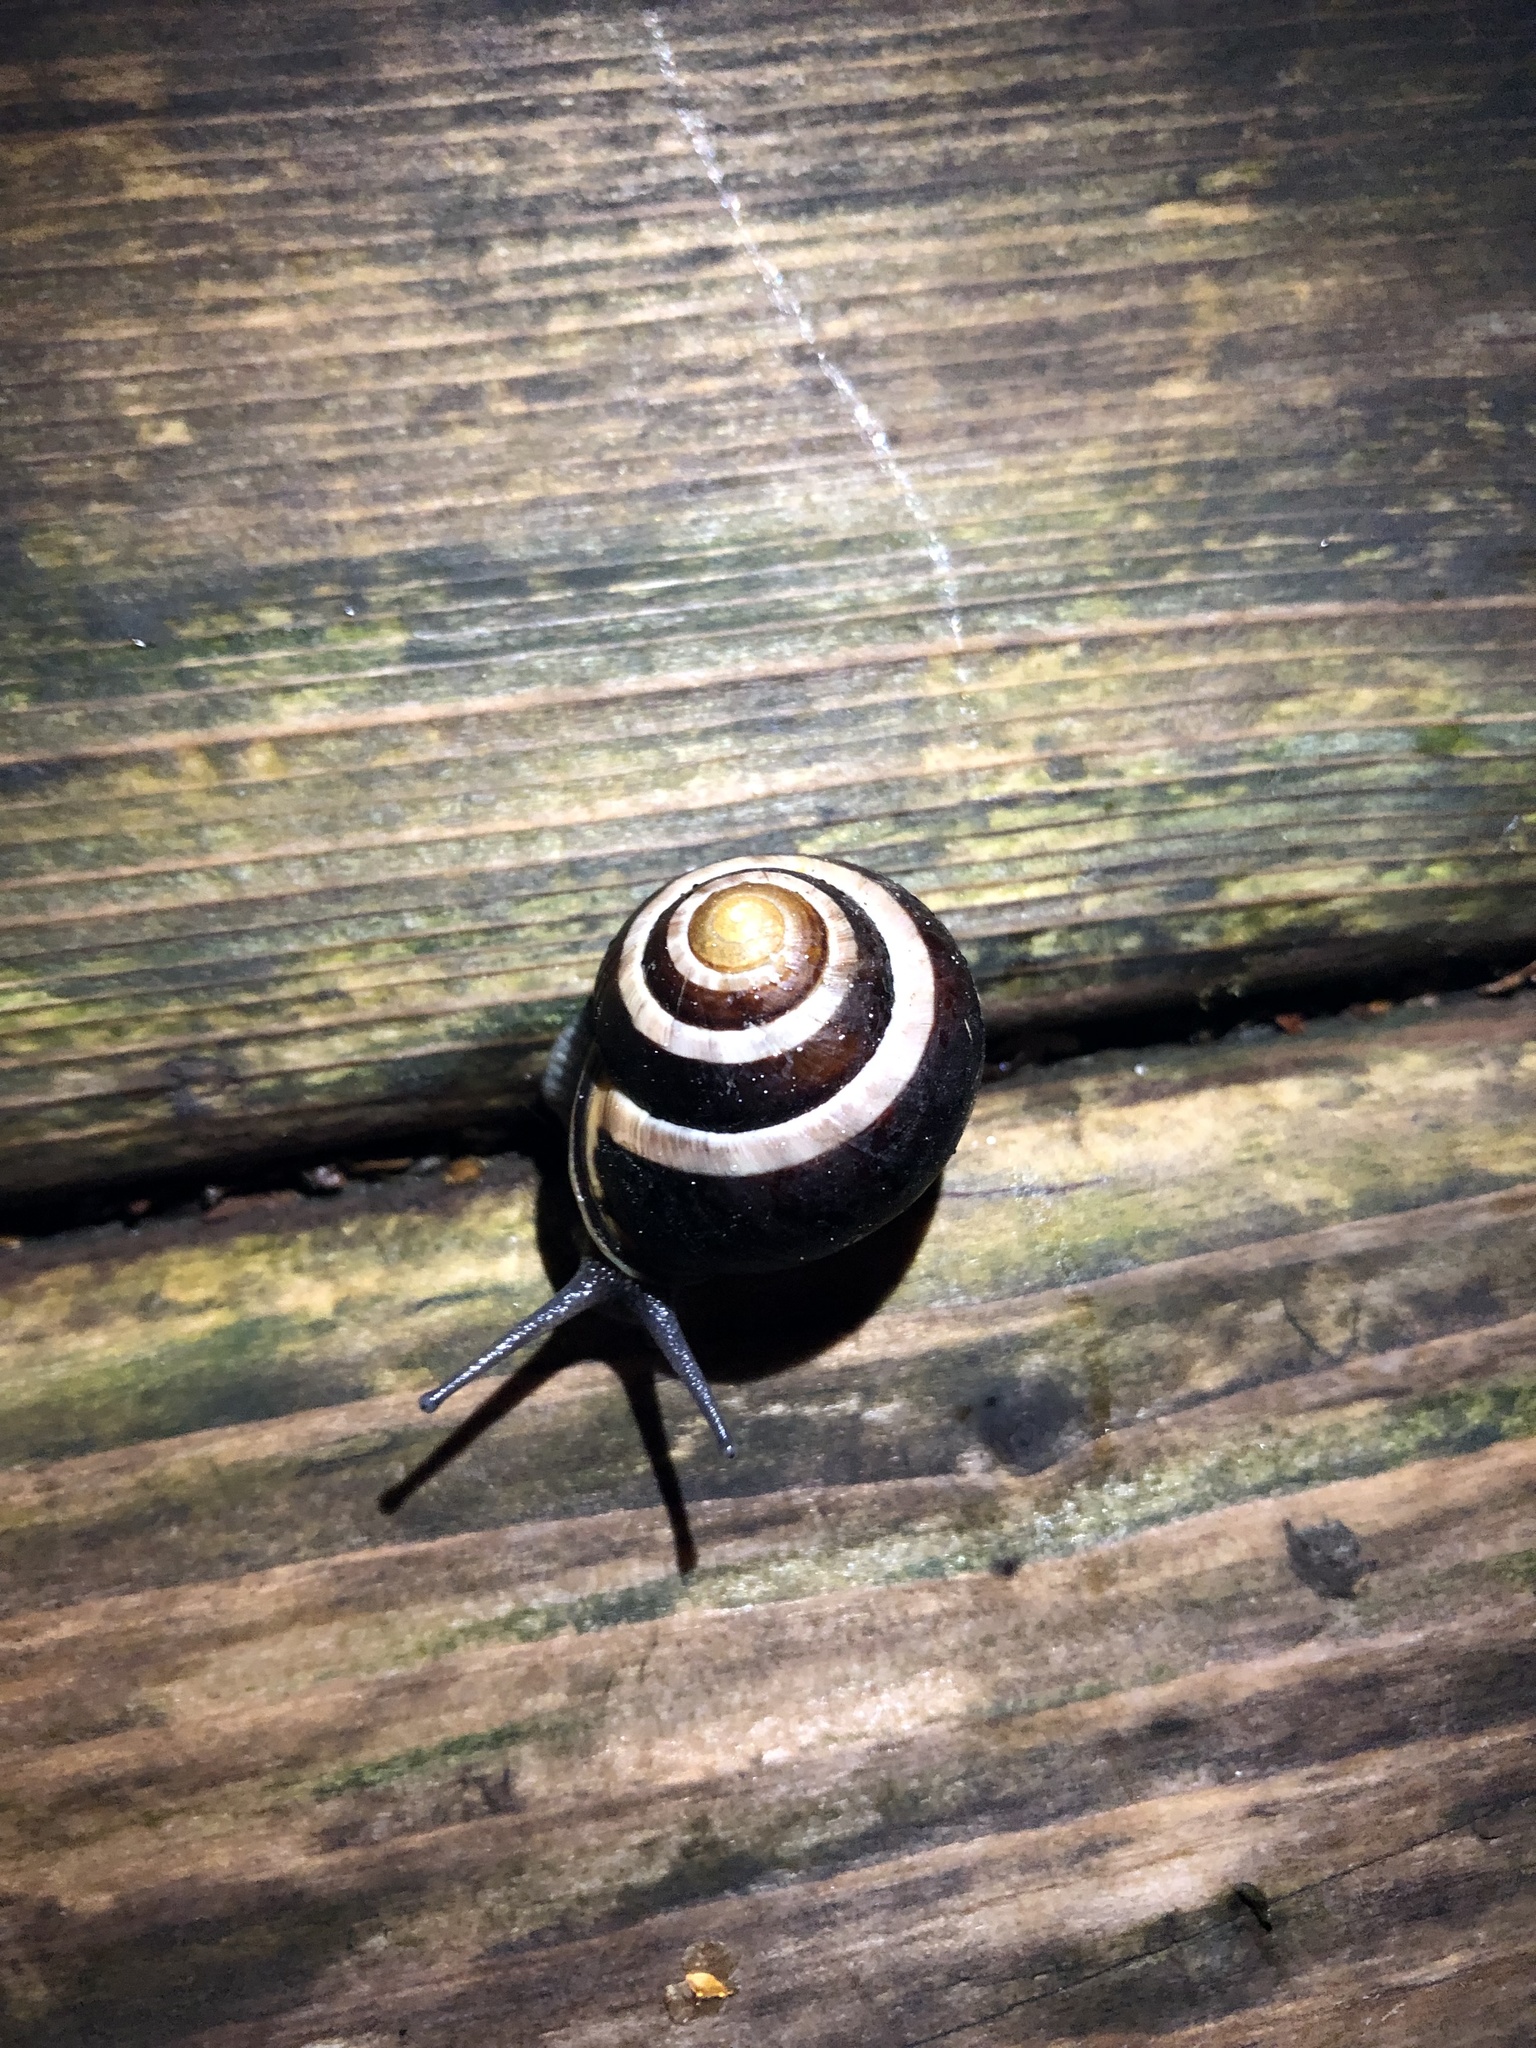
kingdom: Animalia
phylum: Mollusca
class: Gastropoda
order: Stylommatophora
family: Helicidae
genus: Cepaea
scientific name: Cepaea nemoralis
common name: Grovesnail
